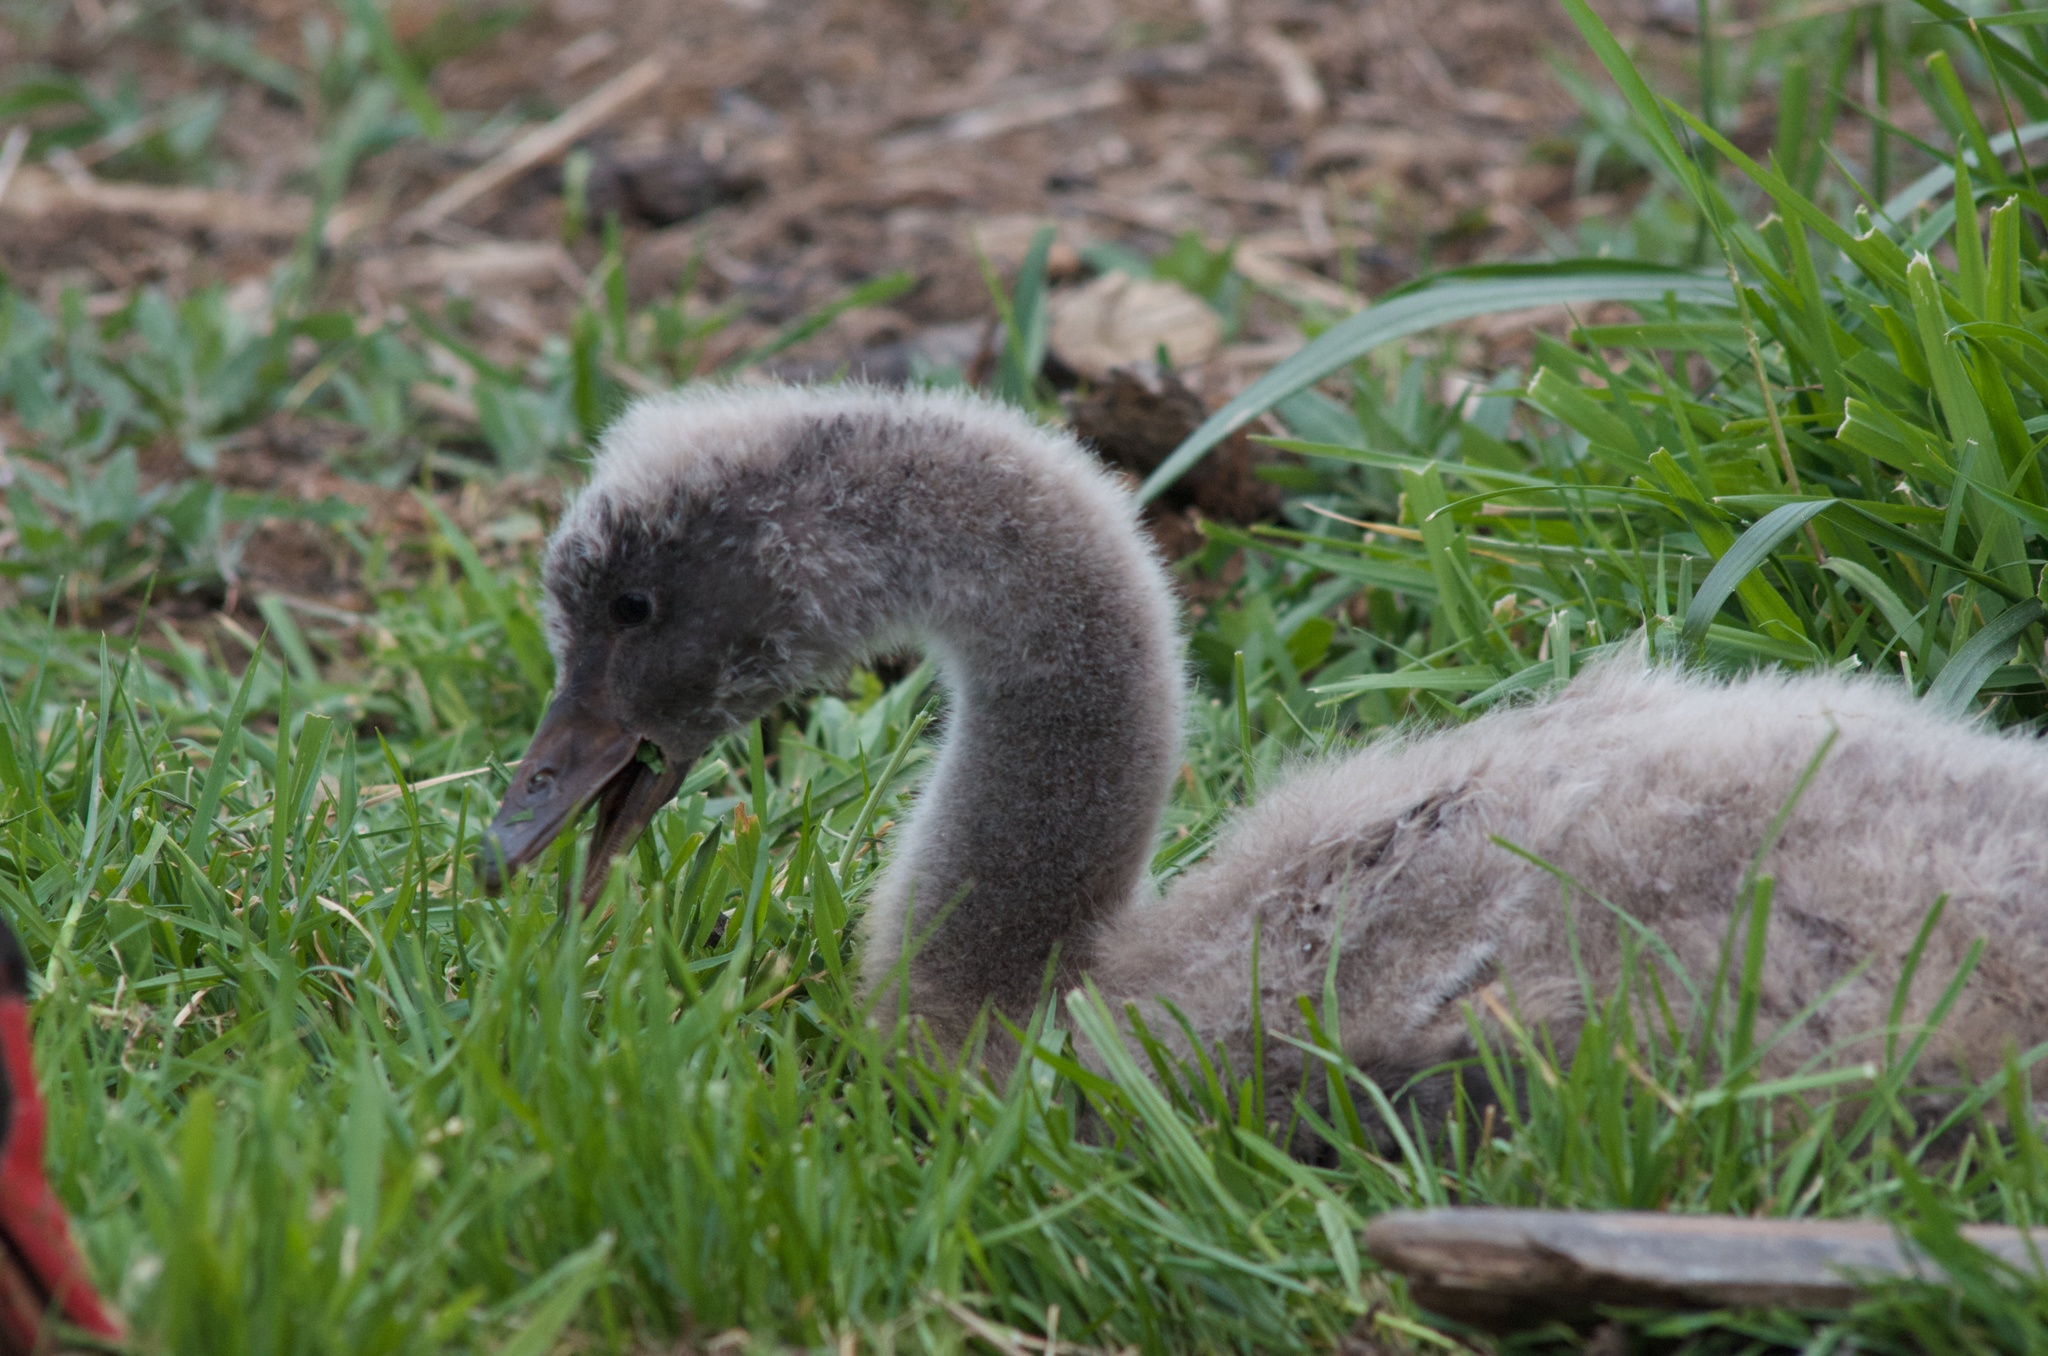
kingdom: Animalia
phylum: Chordata
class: Aves
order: Anseriformes
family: Anatidae
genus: Cygnus
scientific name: Cygnus atratus
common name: Black swan
